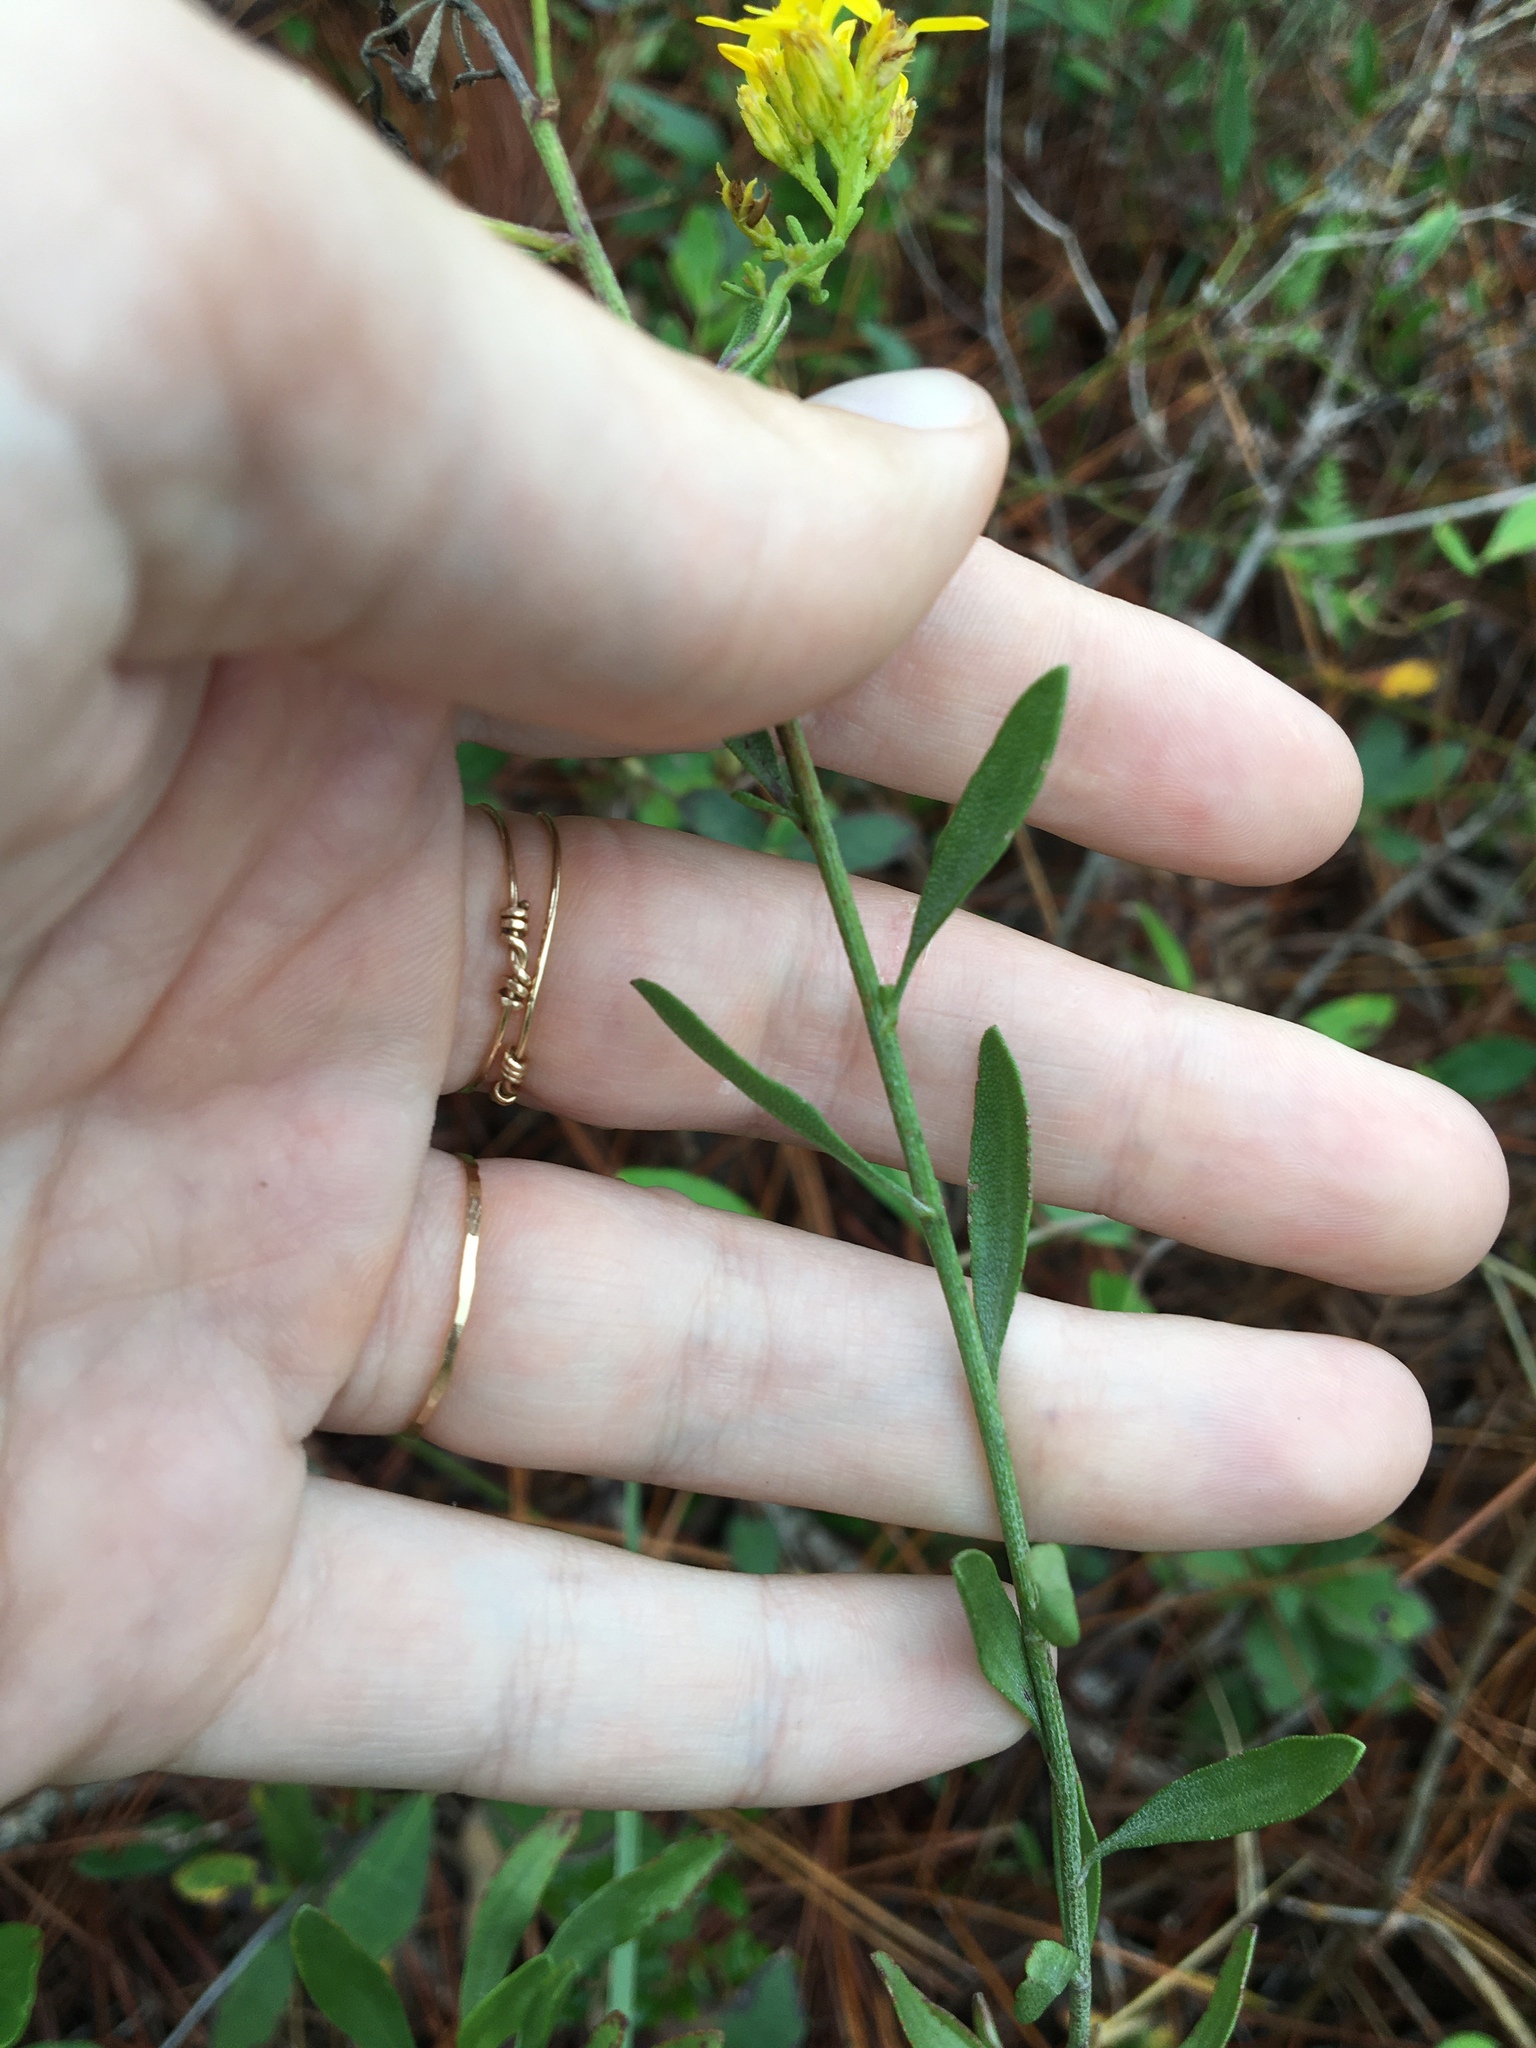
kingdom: Plantae
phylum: Tracheophyta
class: Magnoliopsida
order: Asterales
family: Asteraceae
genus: Chrysoma
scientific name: Chrysoma pauciflosculosa
